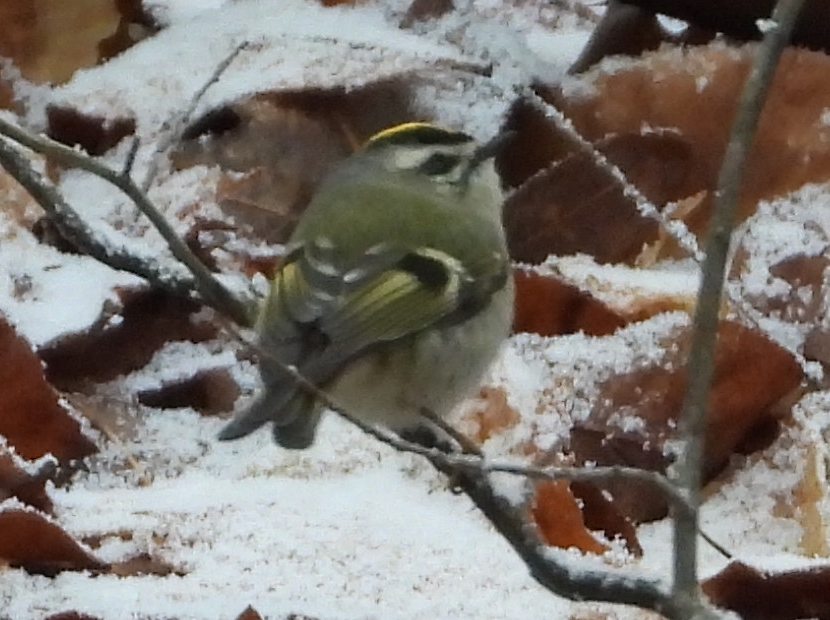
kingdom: Animalia
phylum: Chordata
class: Aves
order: Passeriformes
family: Regulidae
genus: Regulus
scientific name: Regulus satrapa
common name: Golden-crowned kinglet
